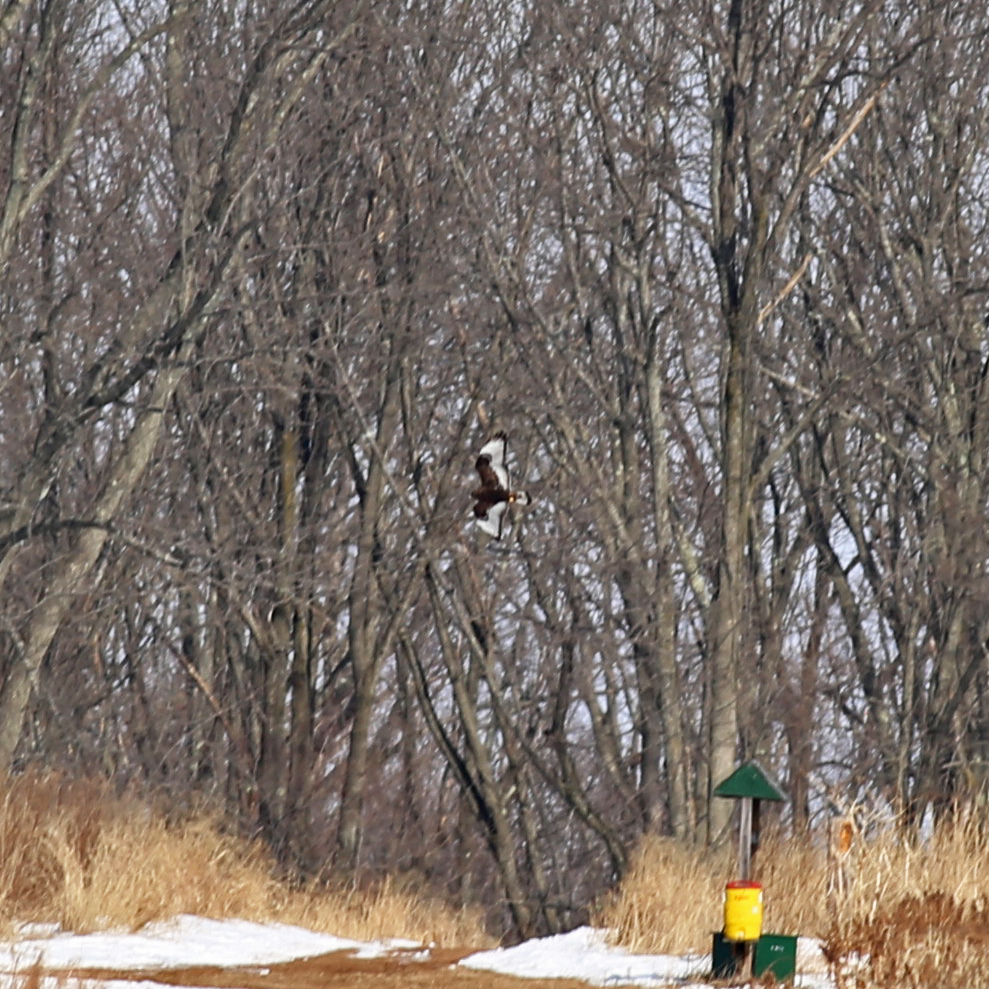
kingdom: Animalia
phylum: Chordata
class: Aves
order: Accipitriformes
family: Accipitridae
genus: Buteo
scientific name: Buteo lagopus
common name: Rough-legged buzzard
